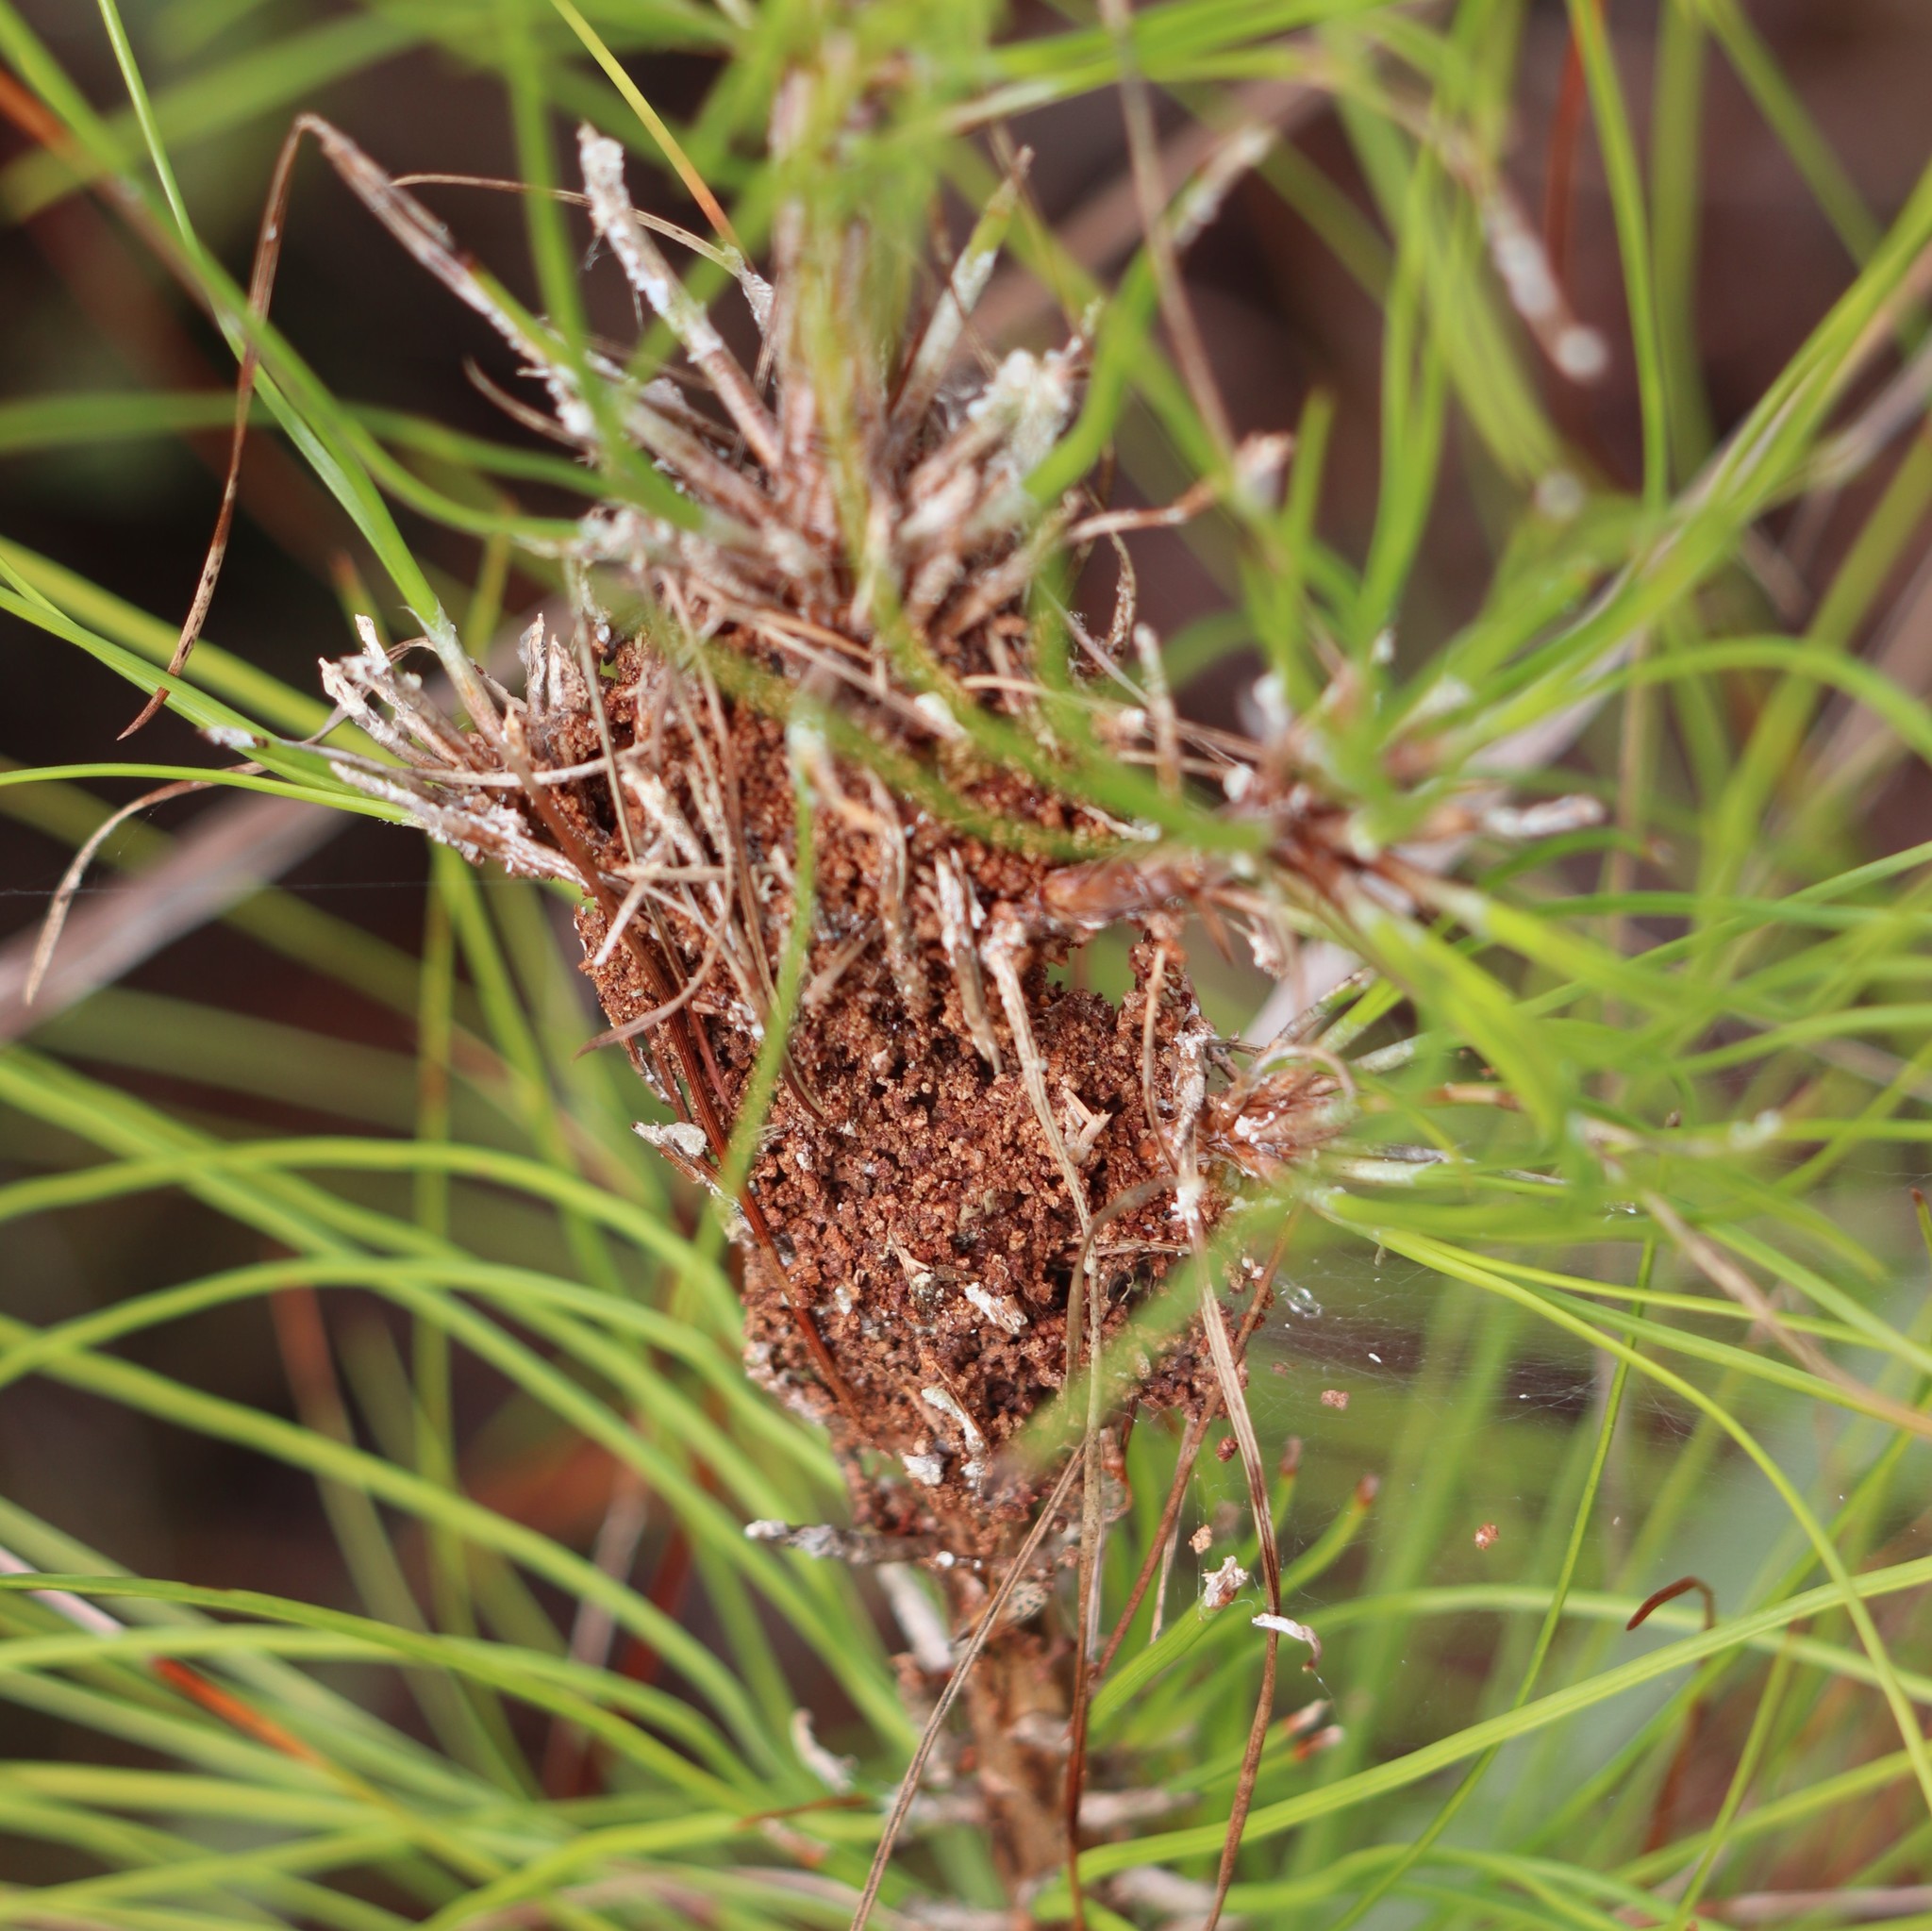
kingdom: Animalia
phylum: Arthropoda
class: Insecta
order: Lepidoptera
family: Pyralidae
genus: Pococera
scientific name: Pococera robustella
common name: Pine webworm moth
